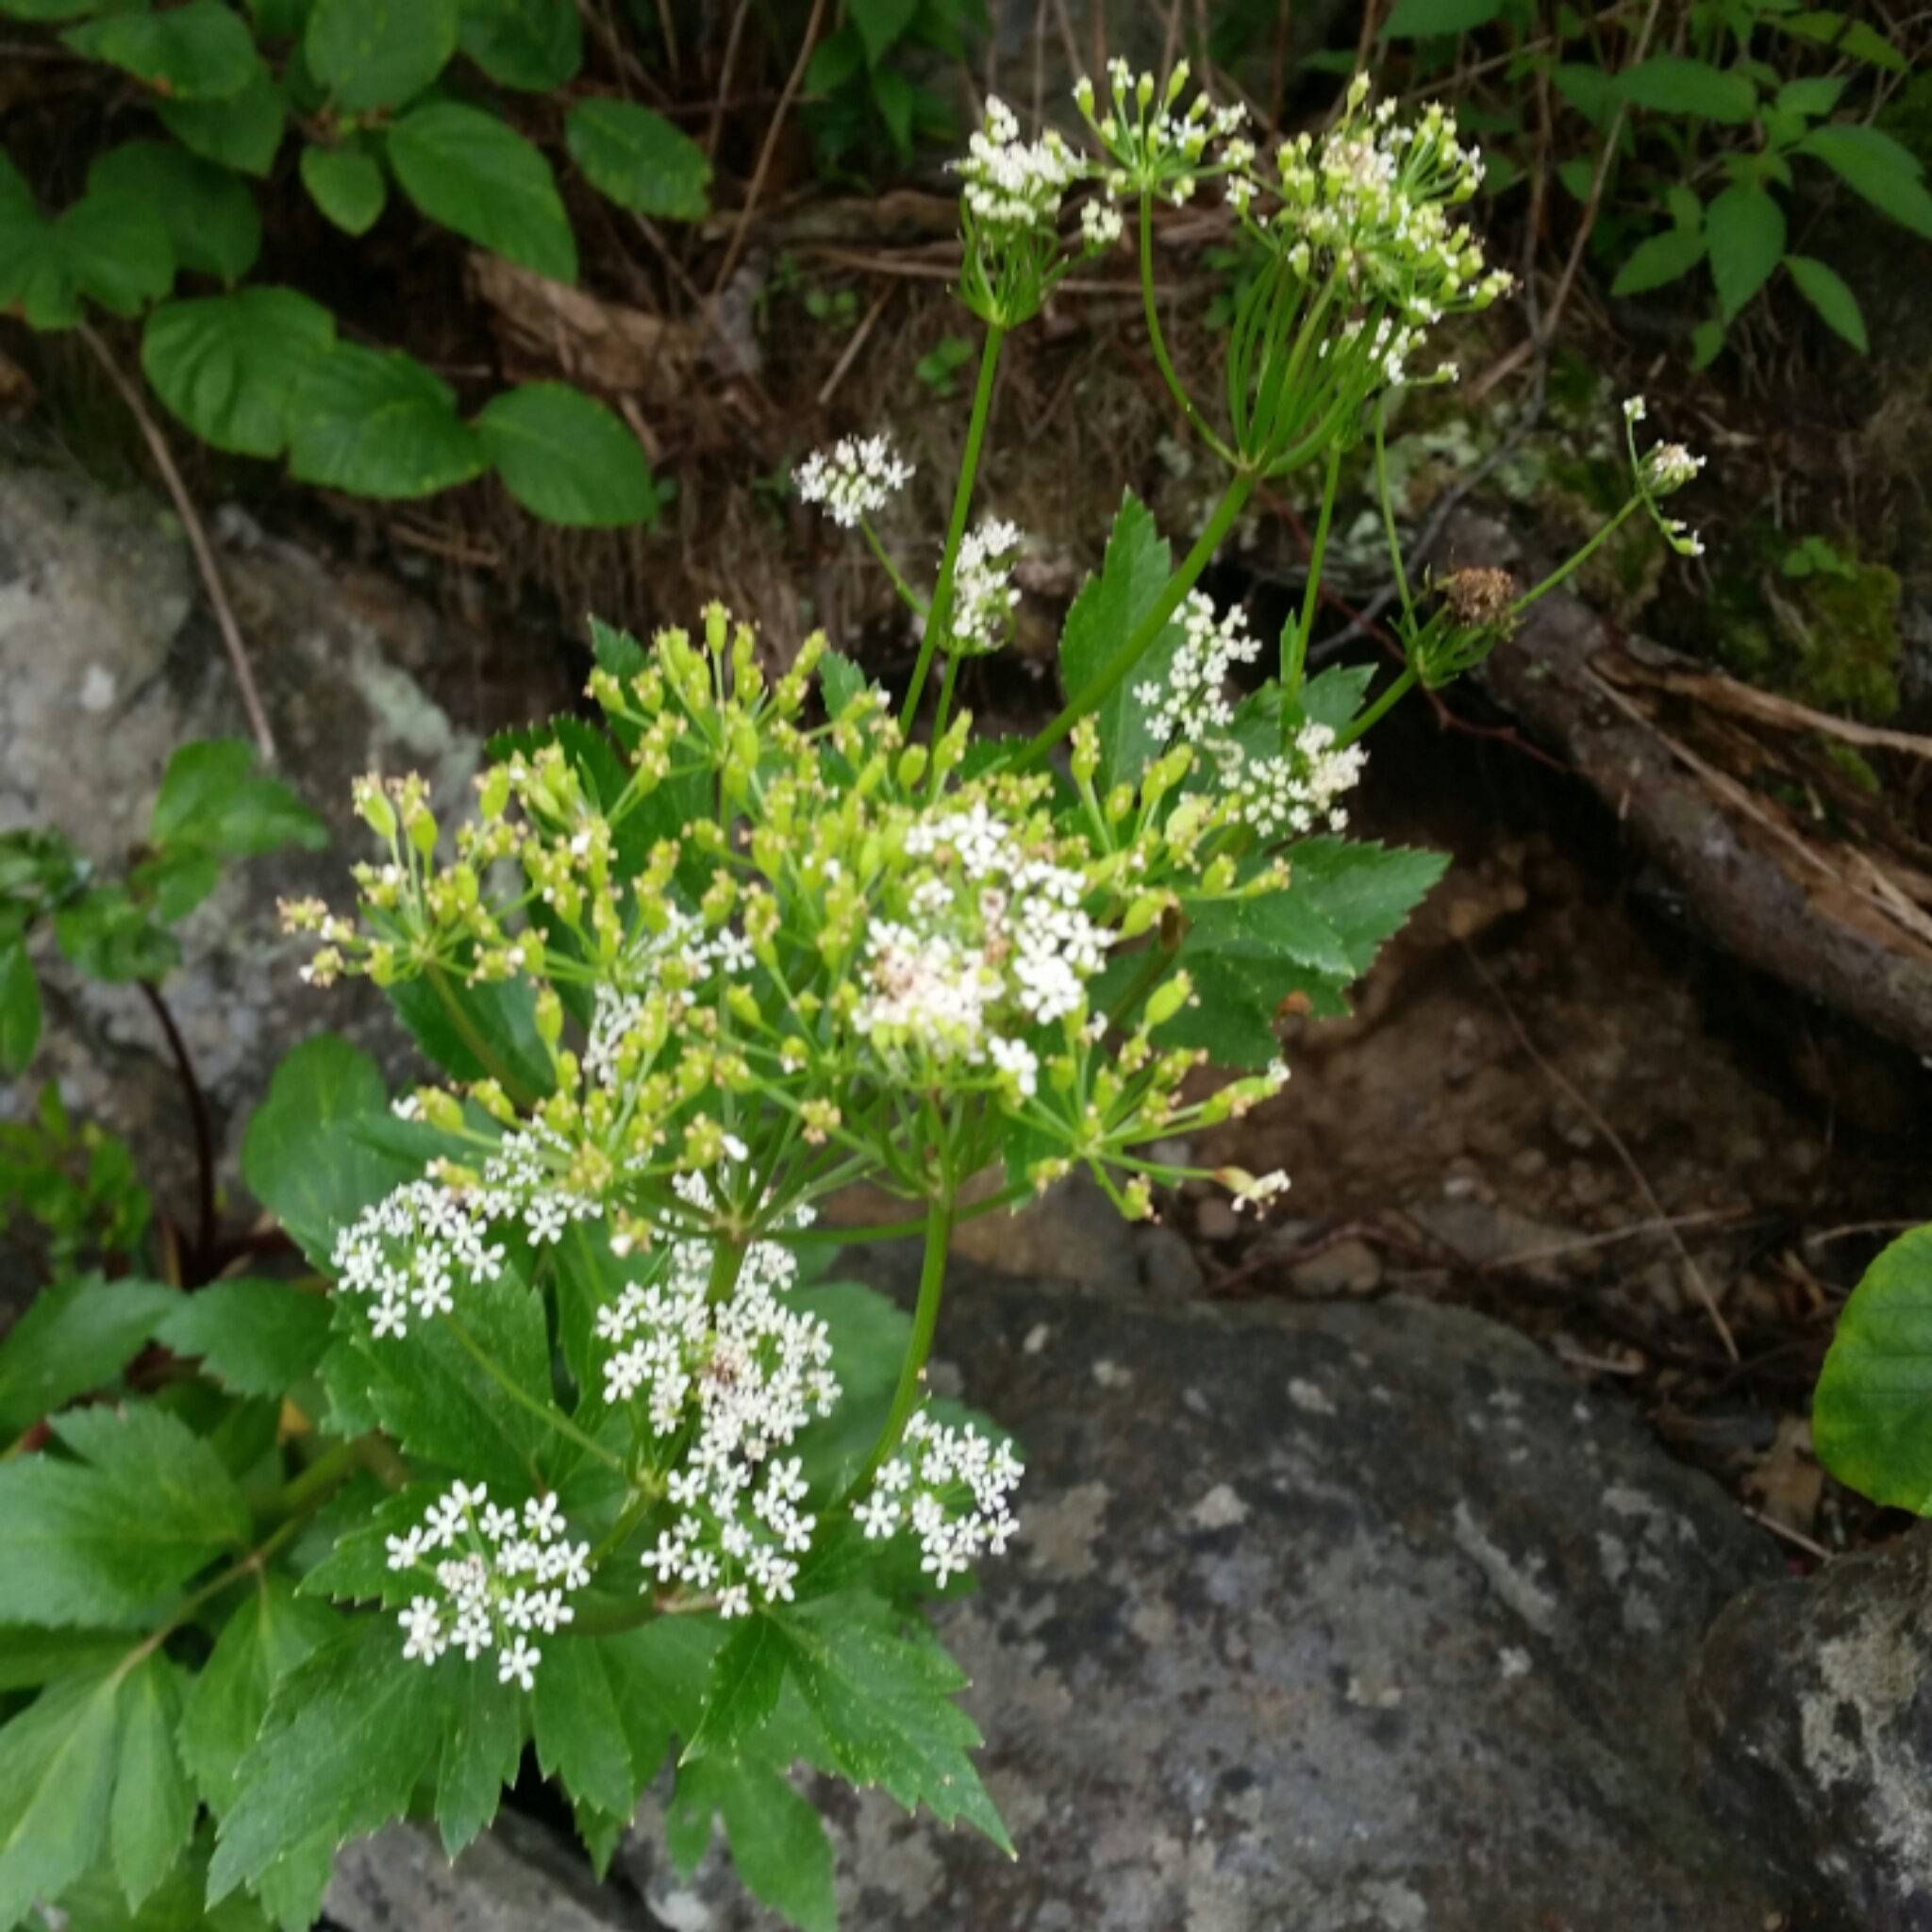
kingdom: Plantae
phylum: Tracheophyta
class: Magnoliopsida
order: Apiales
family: Apiaceae
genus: Ligusticum
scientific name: Ligusticum scothicum
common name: Beach lovage
